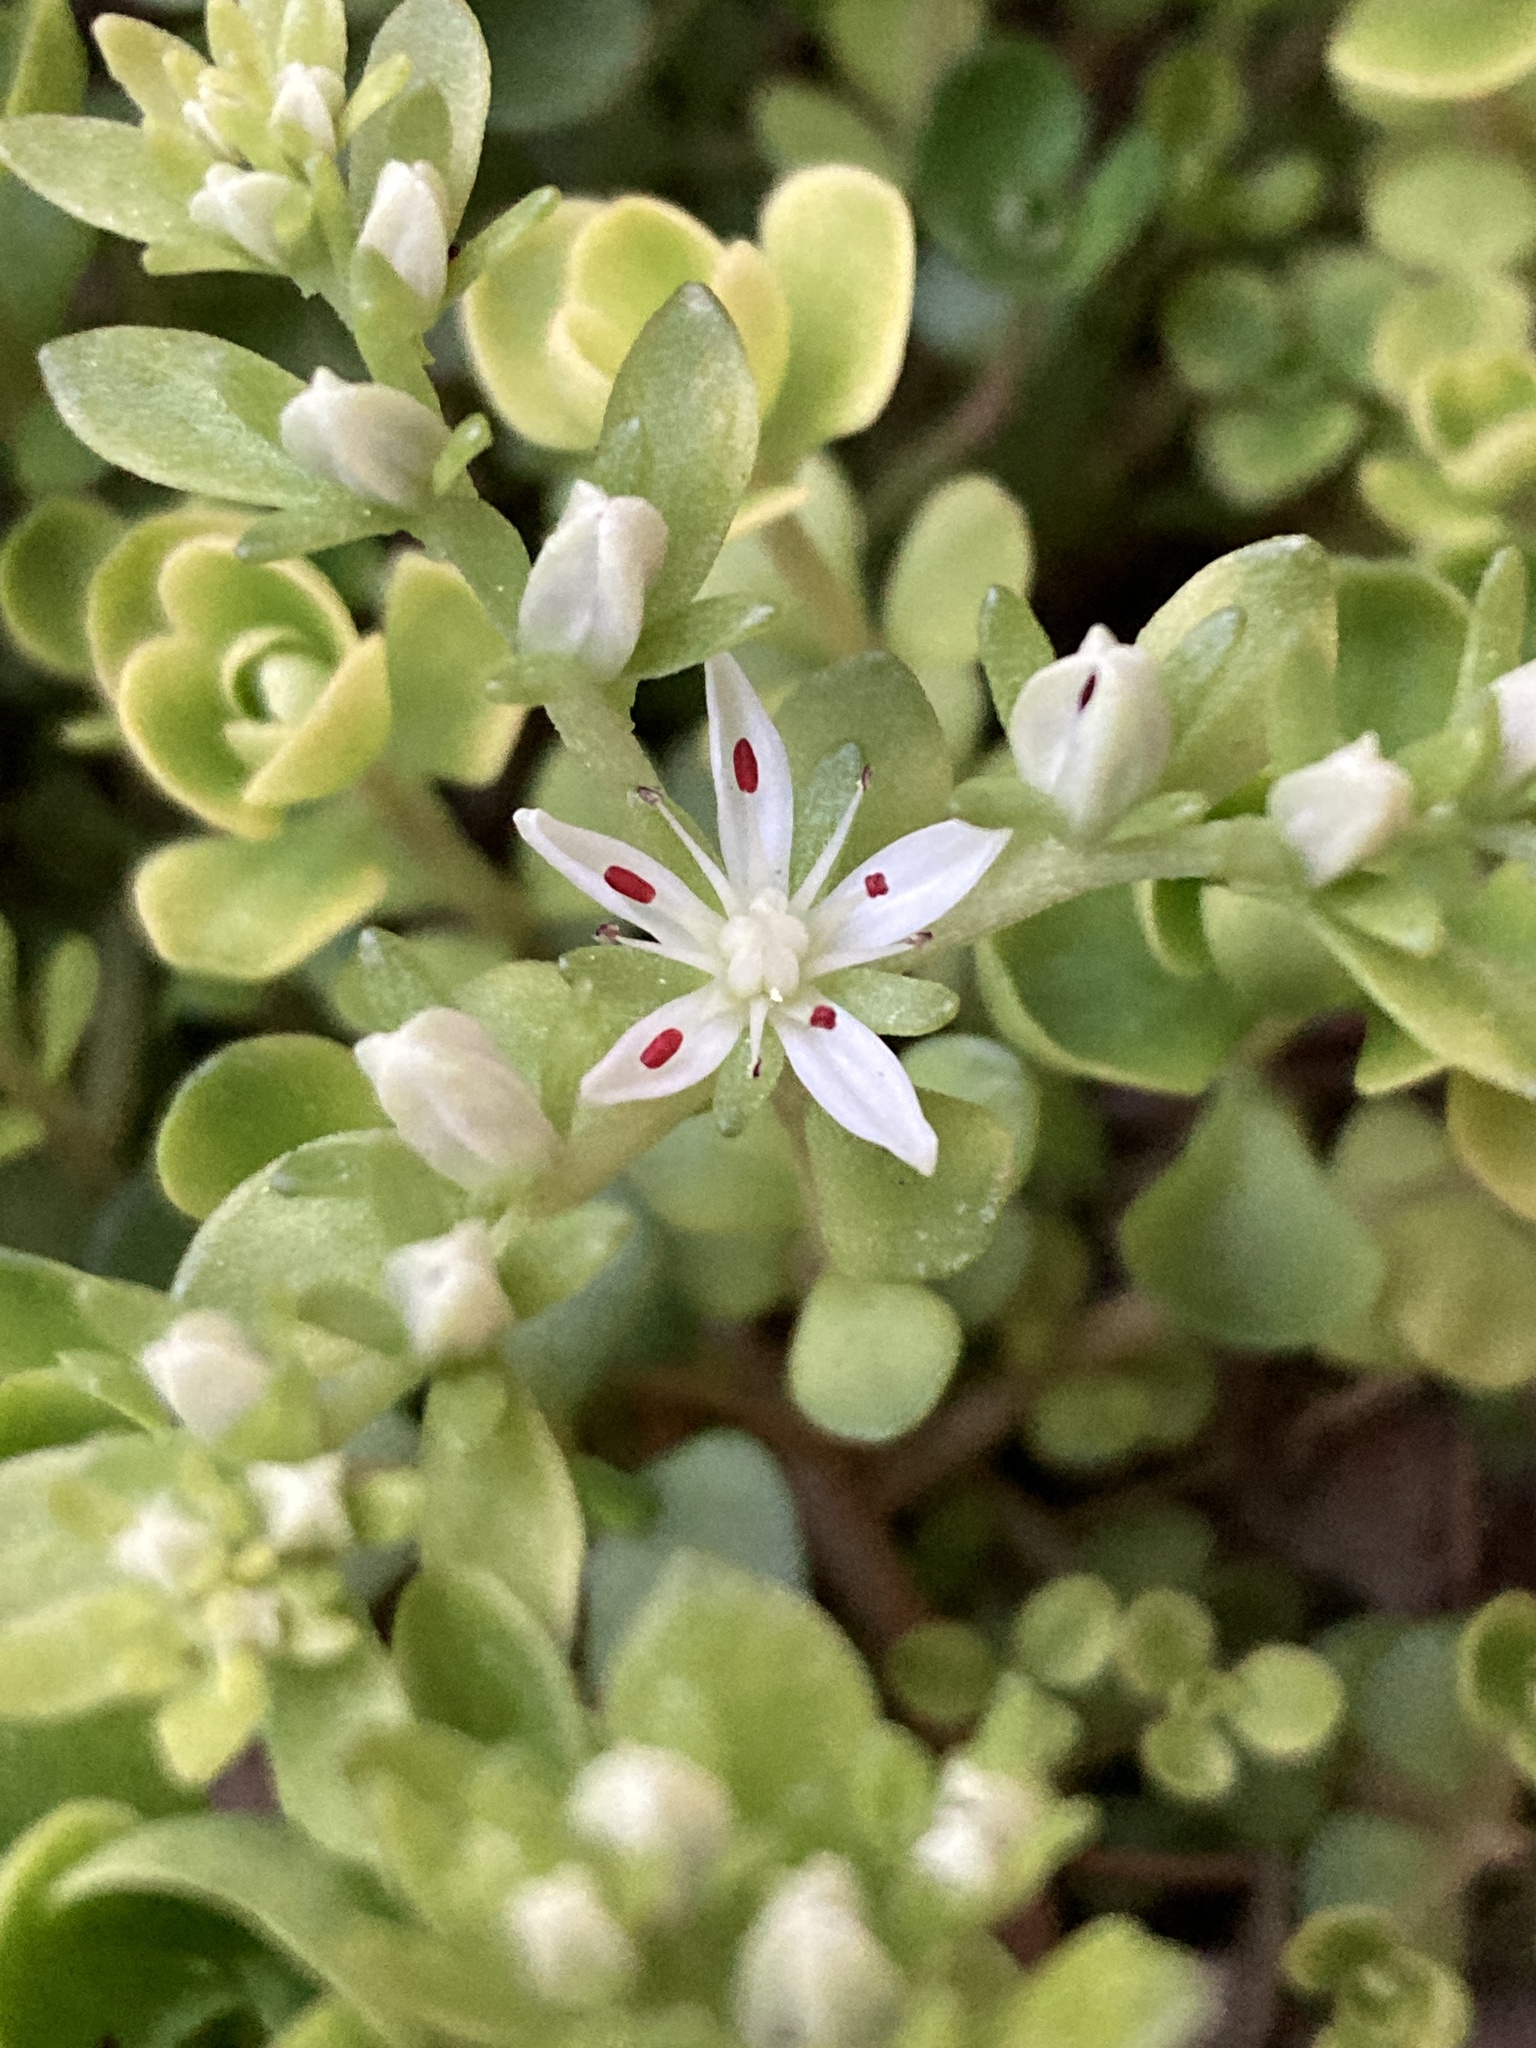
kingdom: Plantae
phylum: Tracheophyta
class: Magnoliopsida
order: Saxifragales
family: Crassulaceae
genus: Sedum
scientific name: Sedum ternatum
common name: Wild stonecrop
